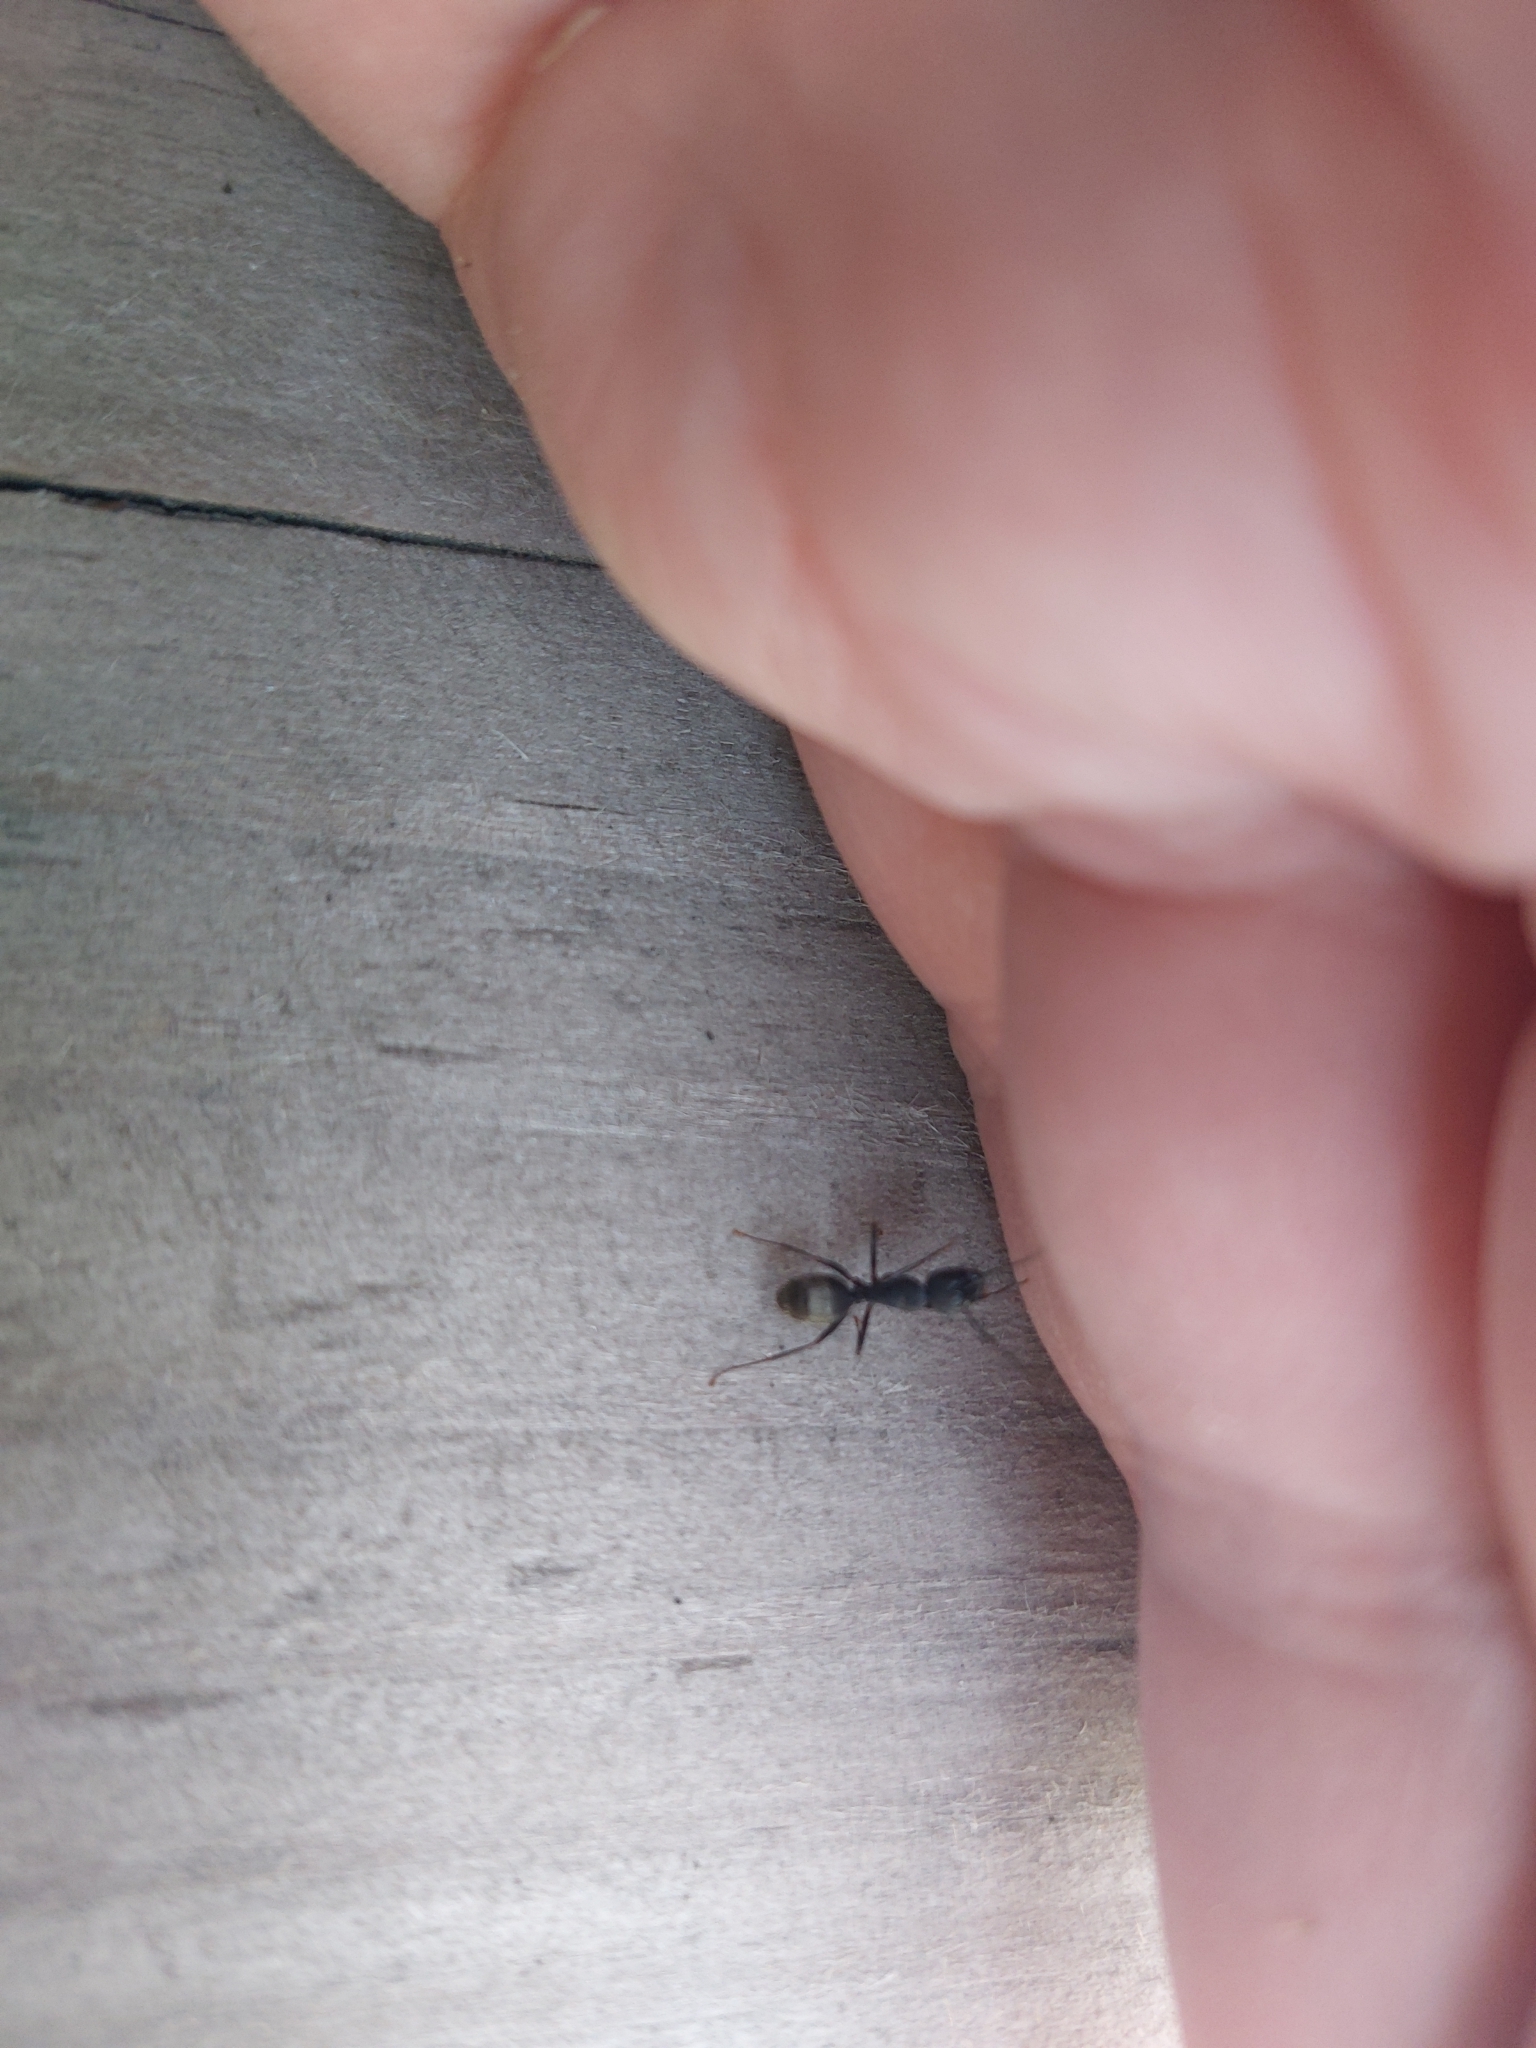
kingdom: Animalia
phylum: Arthropoda
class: Insecta
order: Hymenoptera
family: Formicidae
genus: Camponotus
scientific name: Camponotus pennsylvanicus
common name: Black carpenter ant
